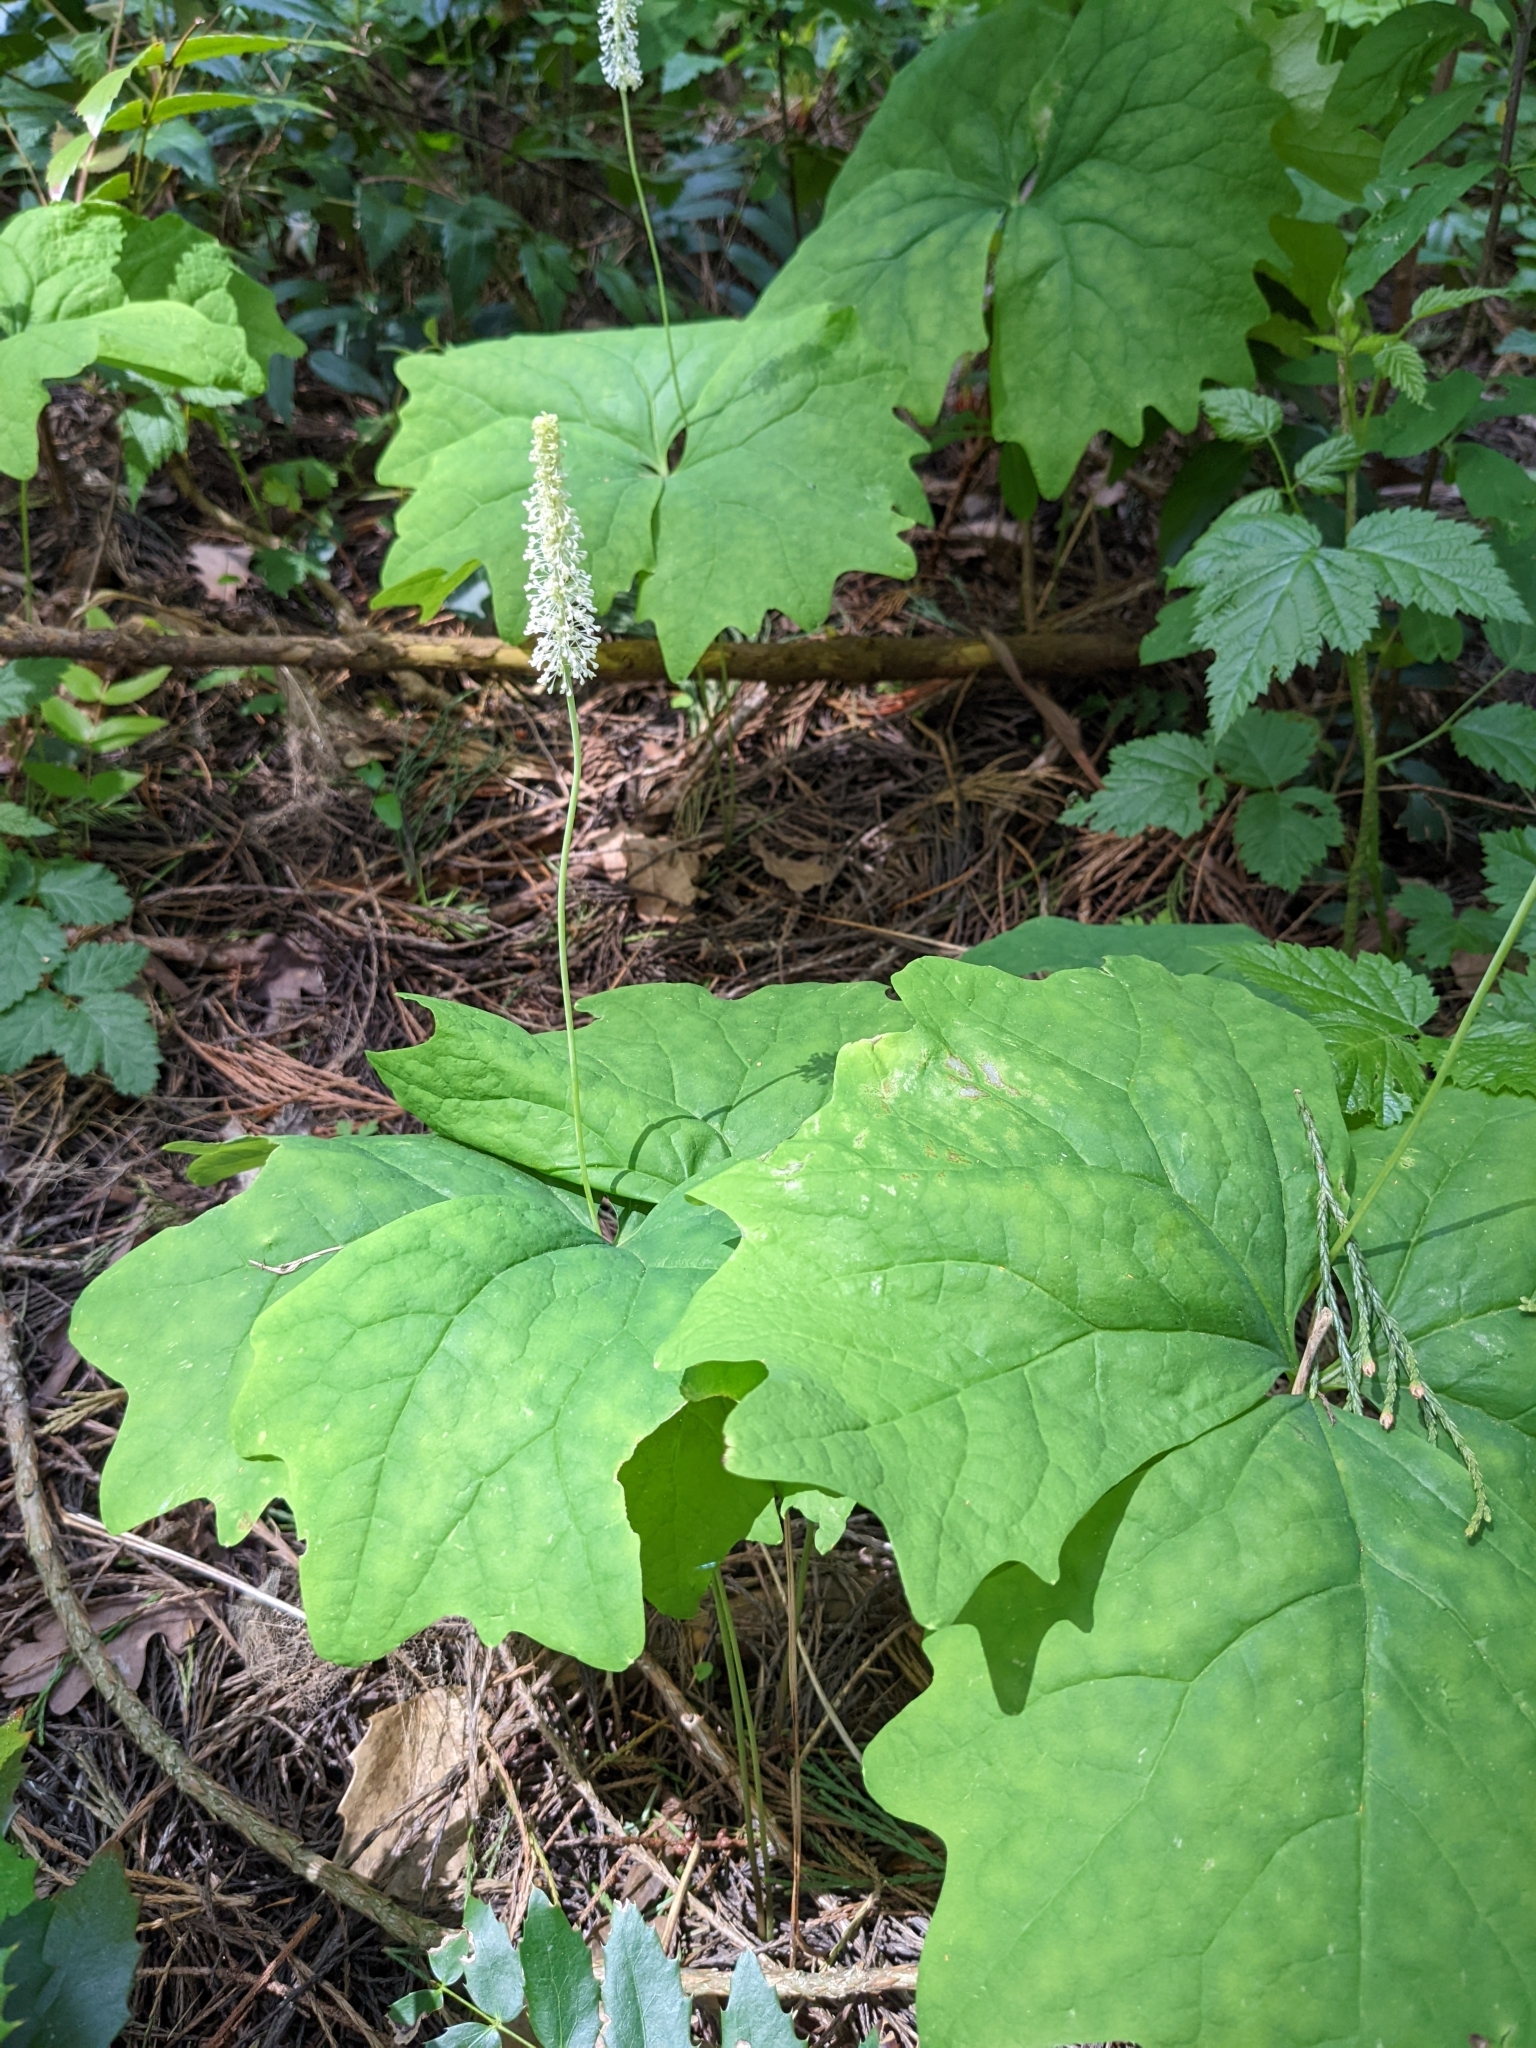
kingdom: Plantae
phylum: Tracheophyta
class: Magnoliopsida
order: Ranunculales
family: Berberidaceae
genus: Achlys
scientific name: Achlys triphylla
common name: Vanilla-leaf
